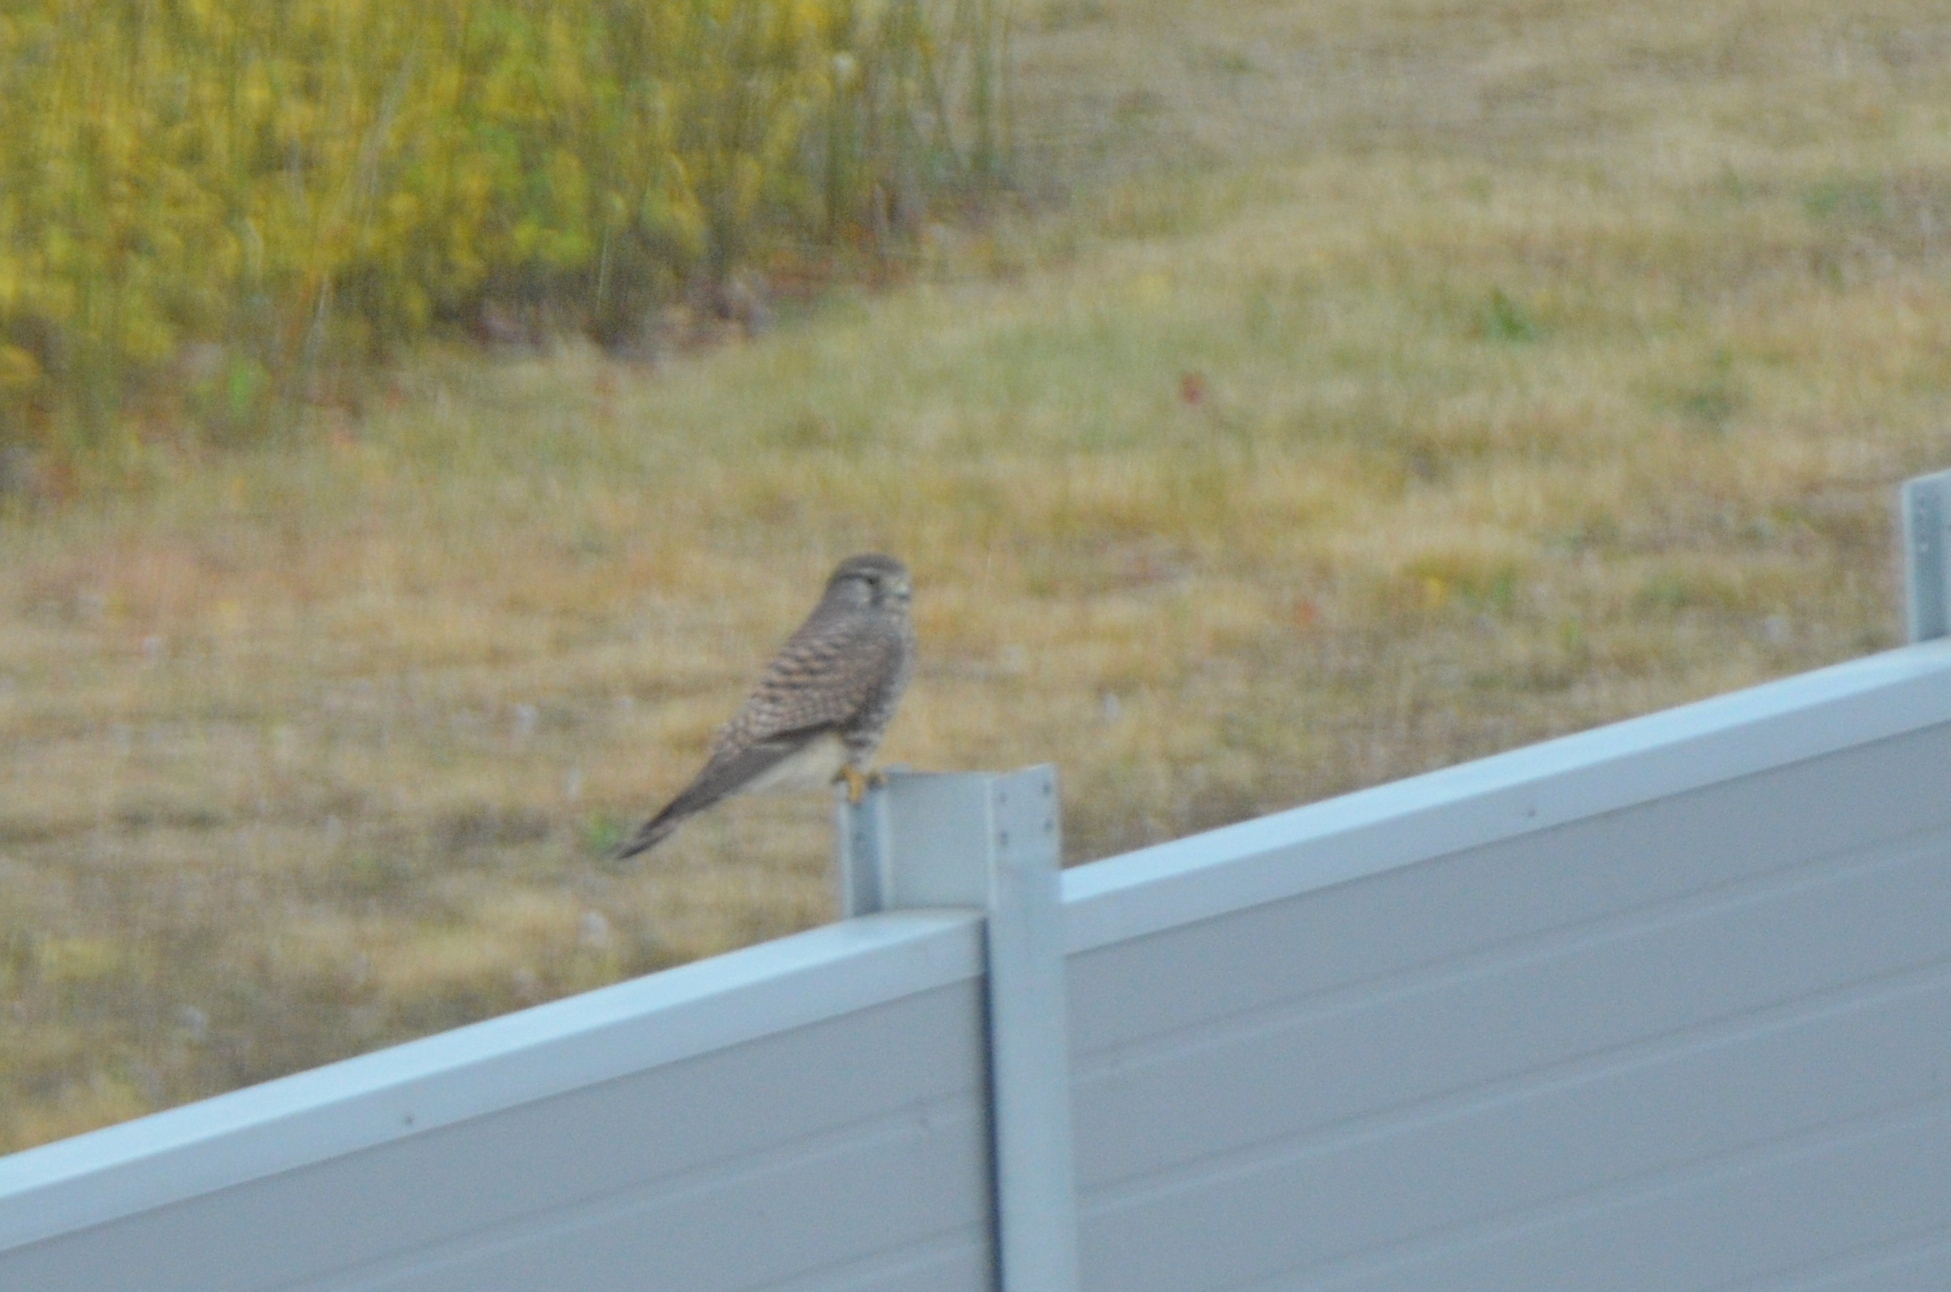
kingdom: Animalia
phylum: Chordata
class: Aves
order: Falconiformes
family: Falconidae
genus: Falco
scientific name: Falco tinnunculus
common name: Common kestrel
